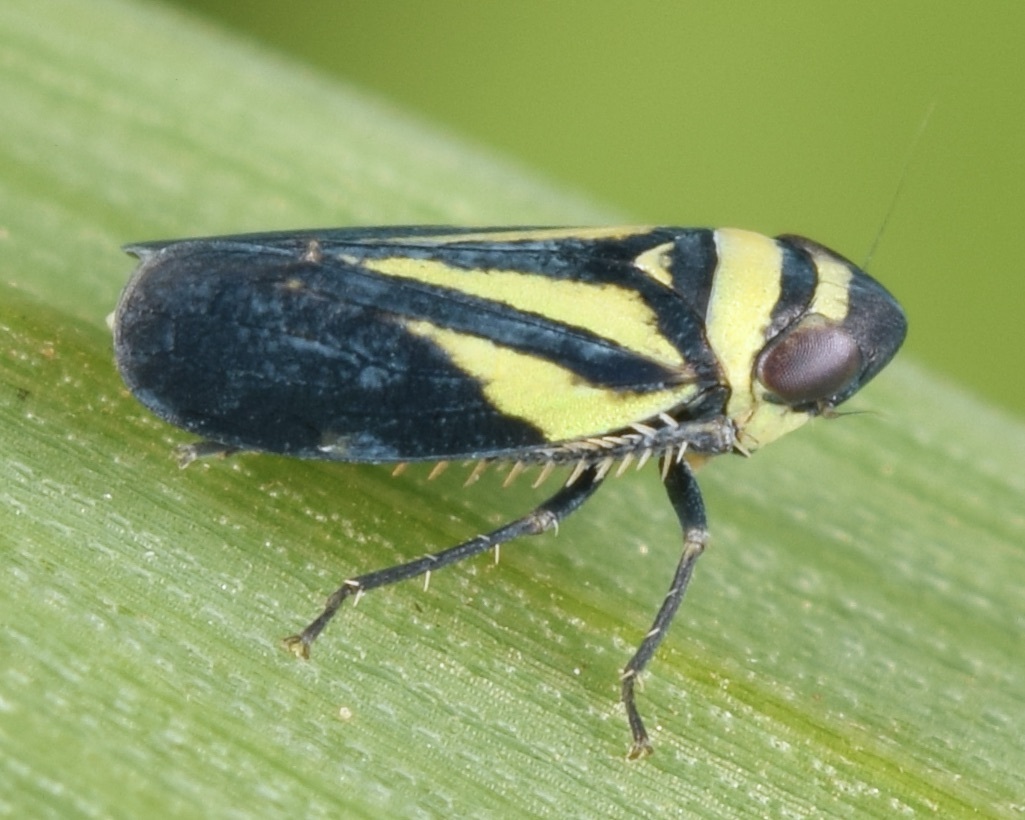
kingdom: Animalia
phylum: Arthropoda
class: Insecta
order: Hemiptera
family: Cicadellidae
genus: Stirellus
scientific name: Stirellus bicolor
